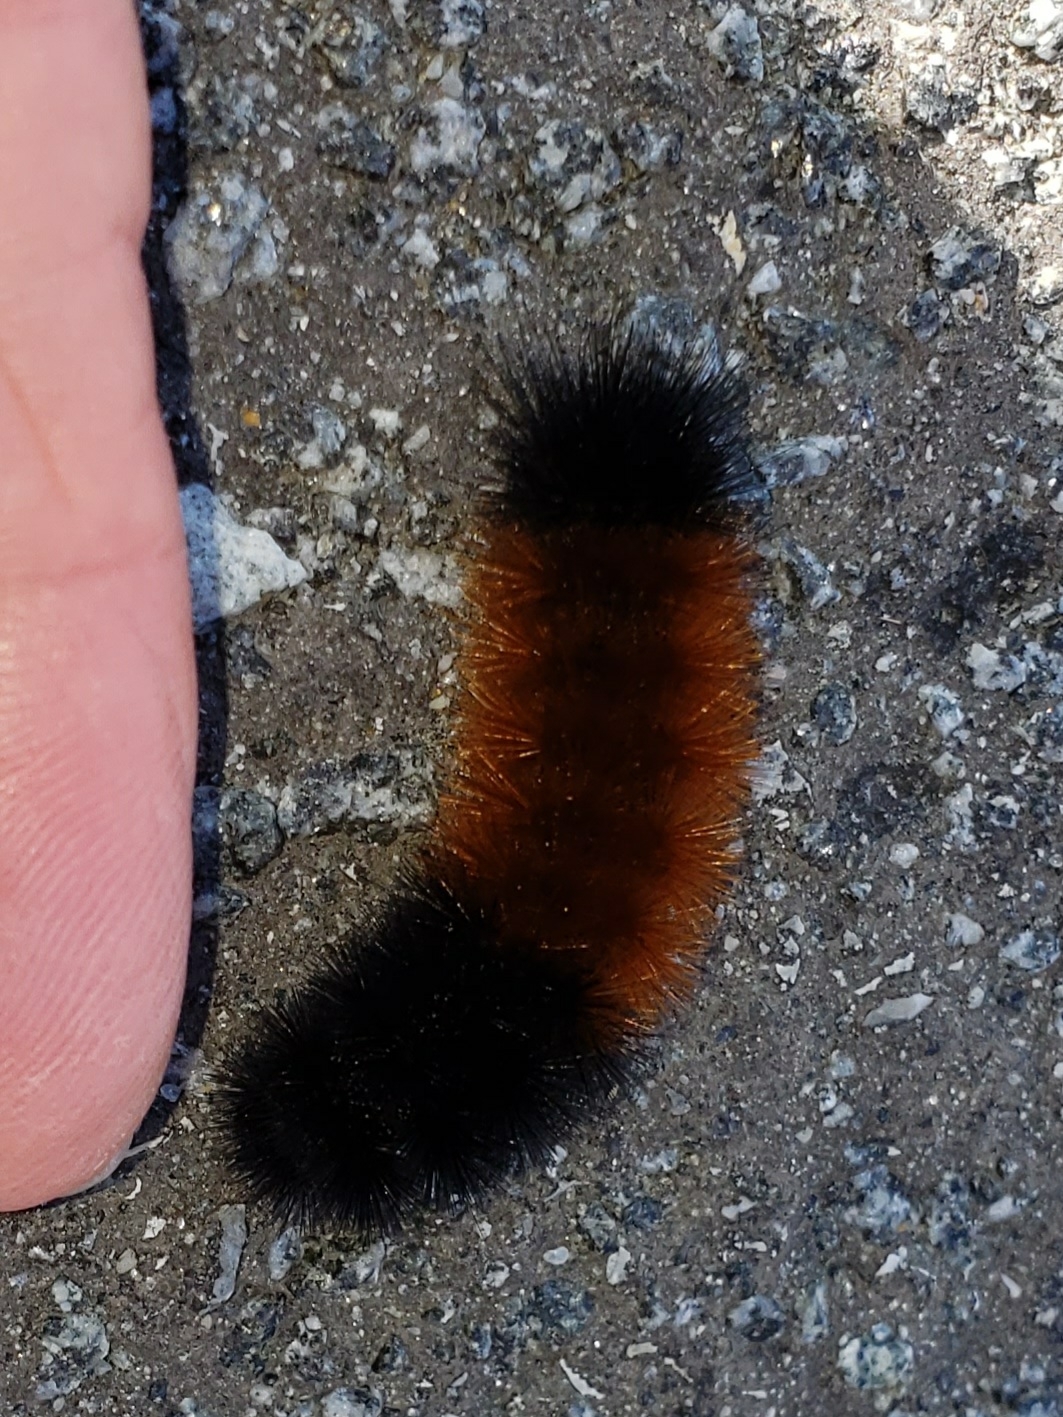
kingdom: Animalia
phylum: Arthropoda
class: Insecta
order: Lepidoptera
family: Erebidae
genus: Pyrrharctia
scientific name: Pyrrharctia isabella
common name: Isabella tiger moth
